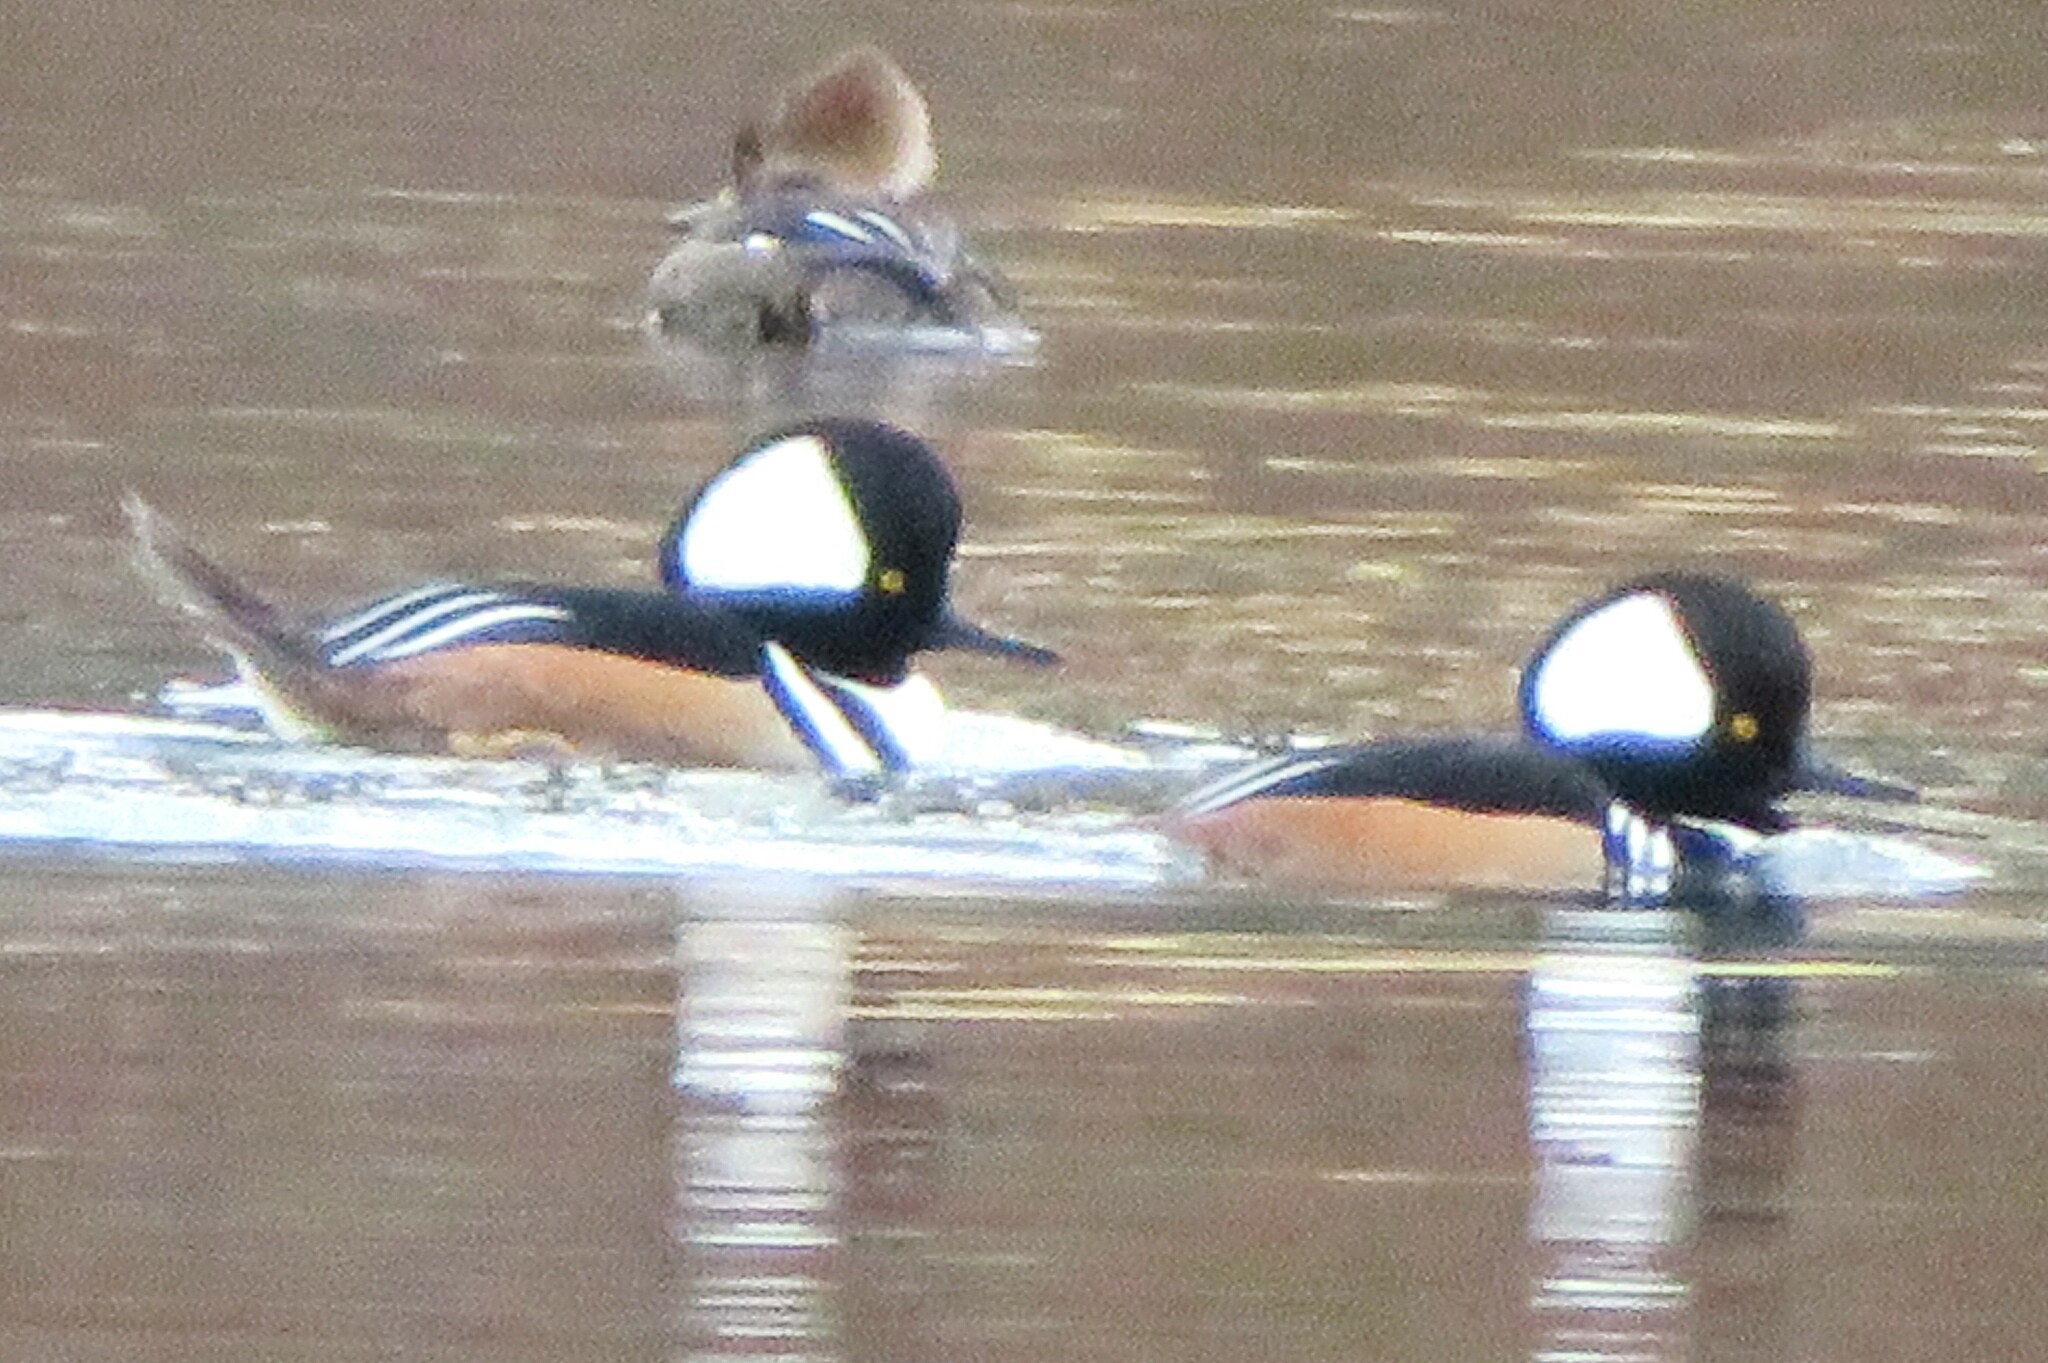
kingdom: Animalia
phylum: Chordata
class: Aves
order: Anseriformes
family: Anatidae
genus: Lophodytes
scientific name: Lophodytes cucullatus
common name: Hooded merganser
